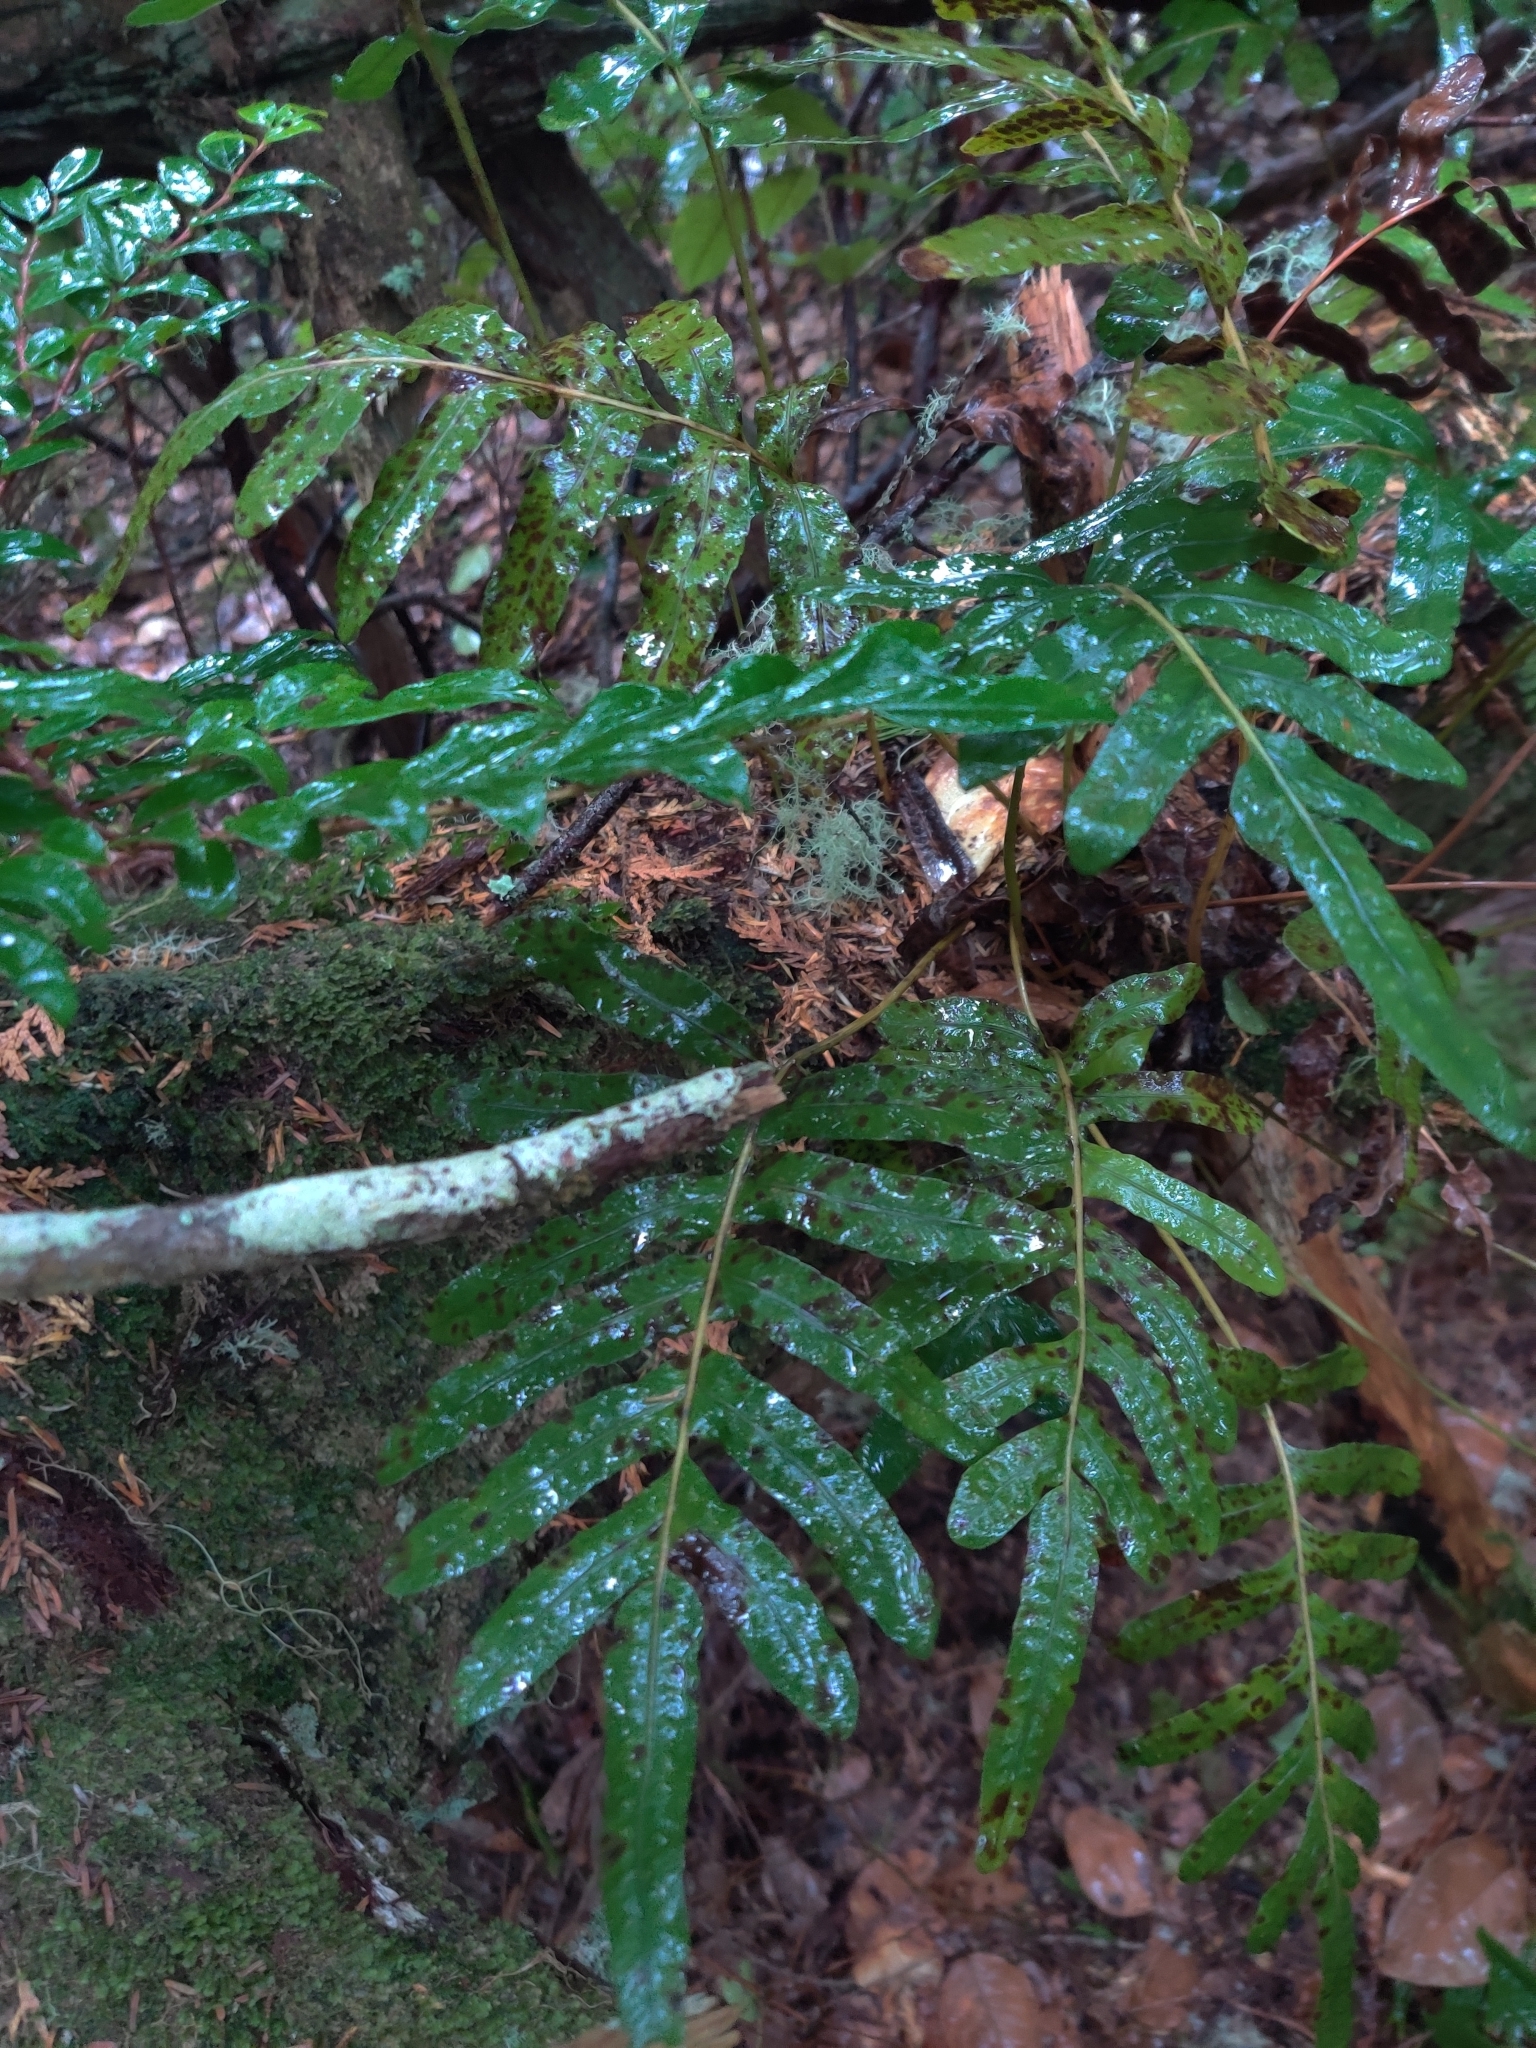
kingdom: Plantae
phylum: Tracheophyta
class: Polypodiopsida
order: Polypodiales
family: Polypodiaceae
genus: Polypodium
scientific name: Polypodium scouleri
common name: Scouler's polypody
